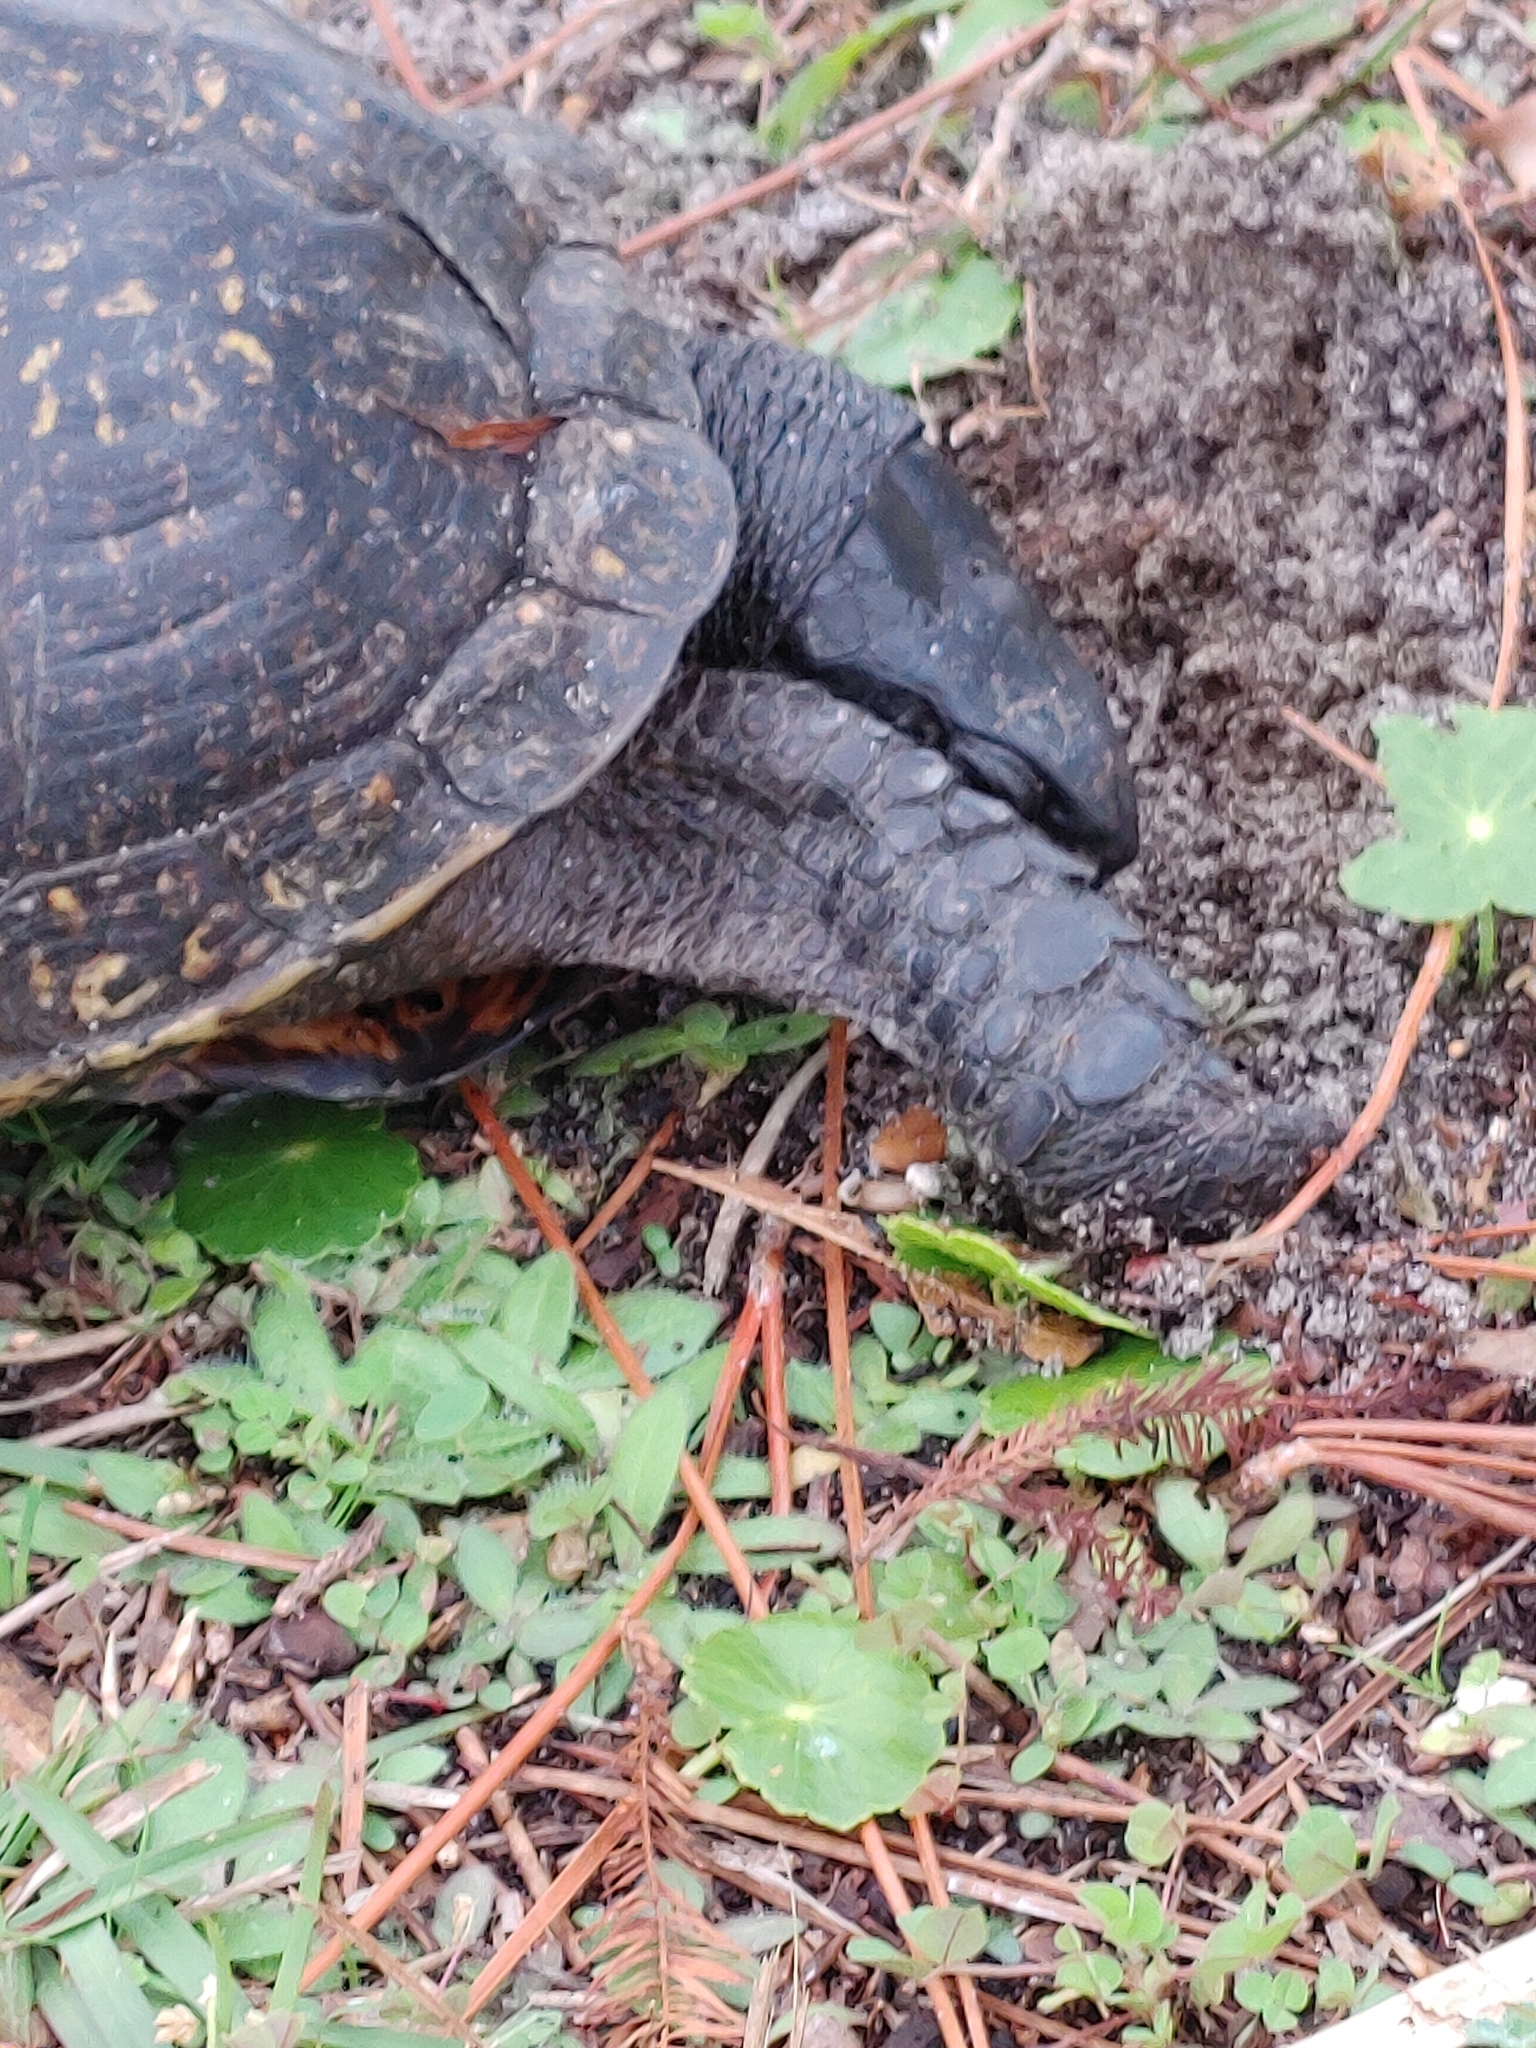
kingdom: Animalia
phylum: Chordata
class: Testudines
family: Emydidae
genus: Terrapene
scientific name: Terrapene carolina
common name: Common box turtle
